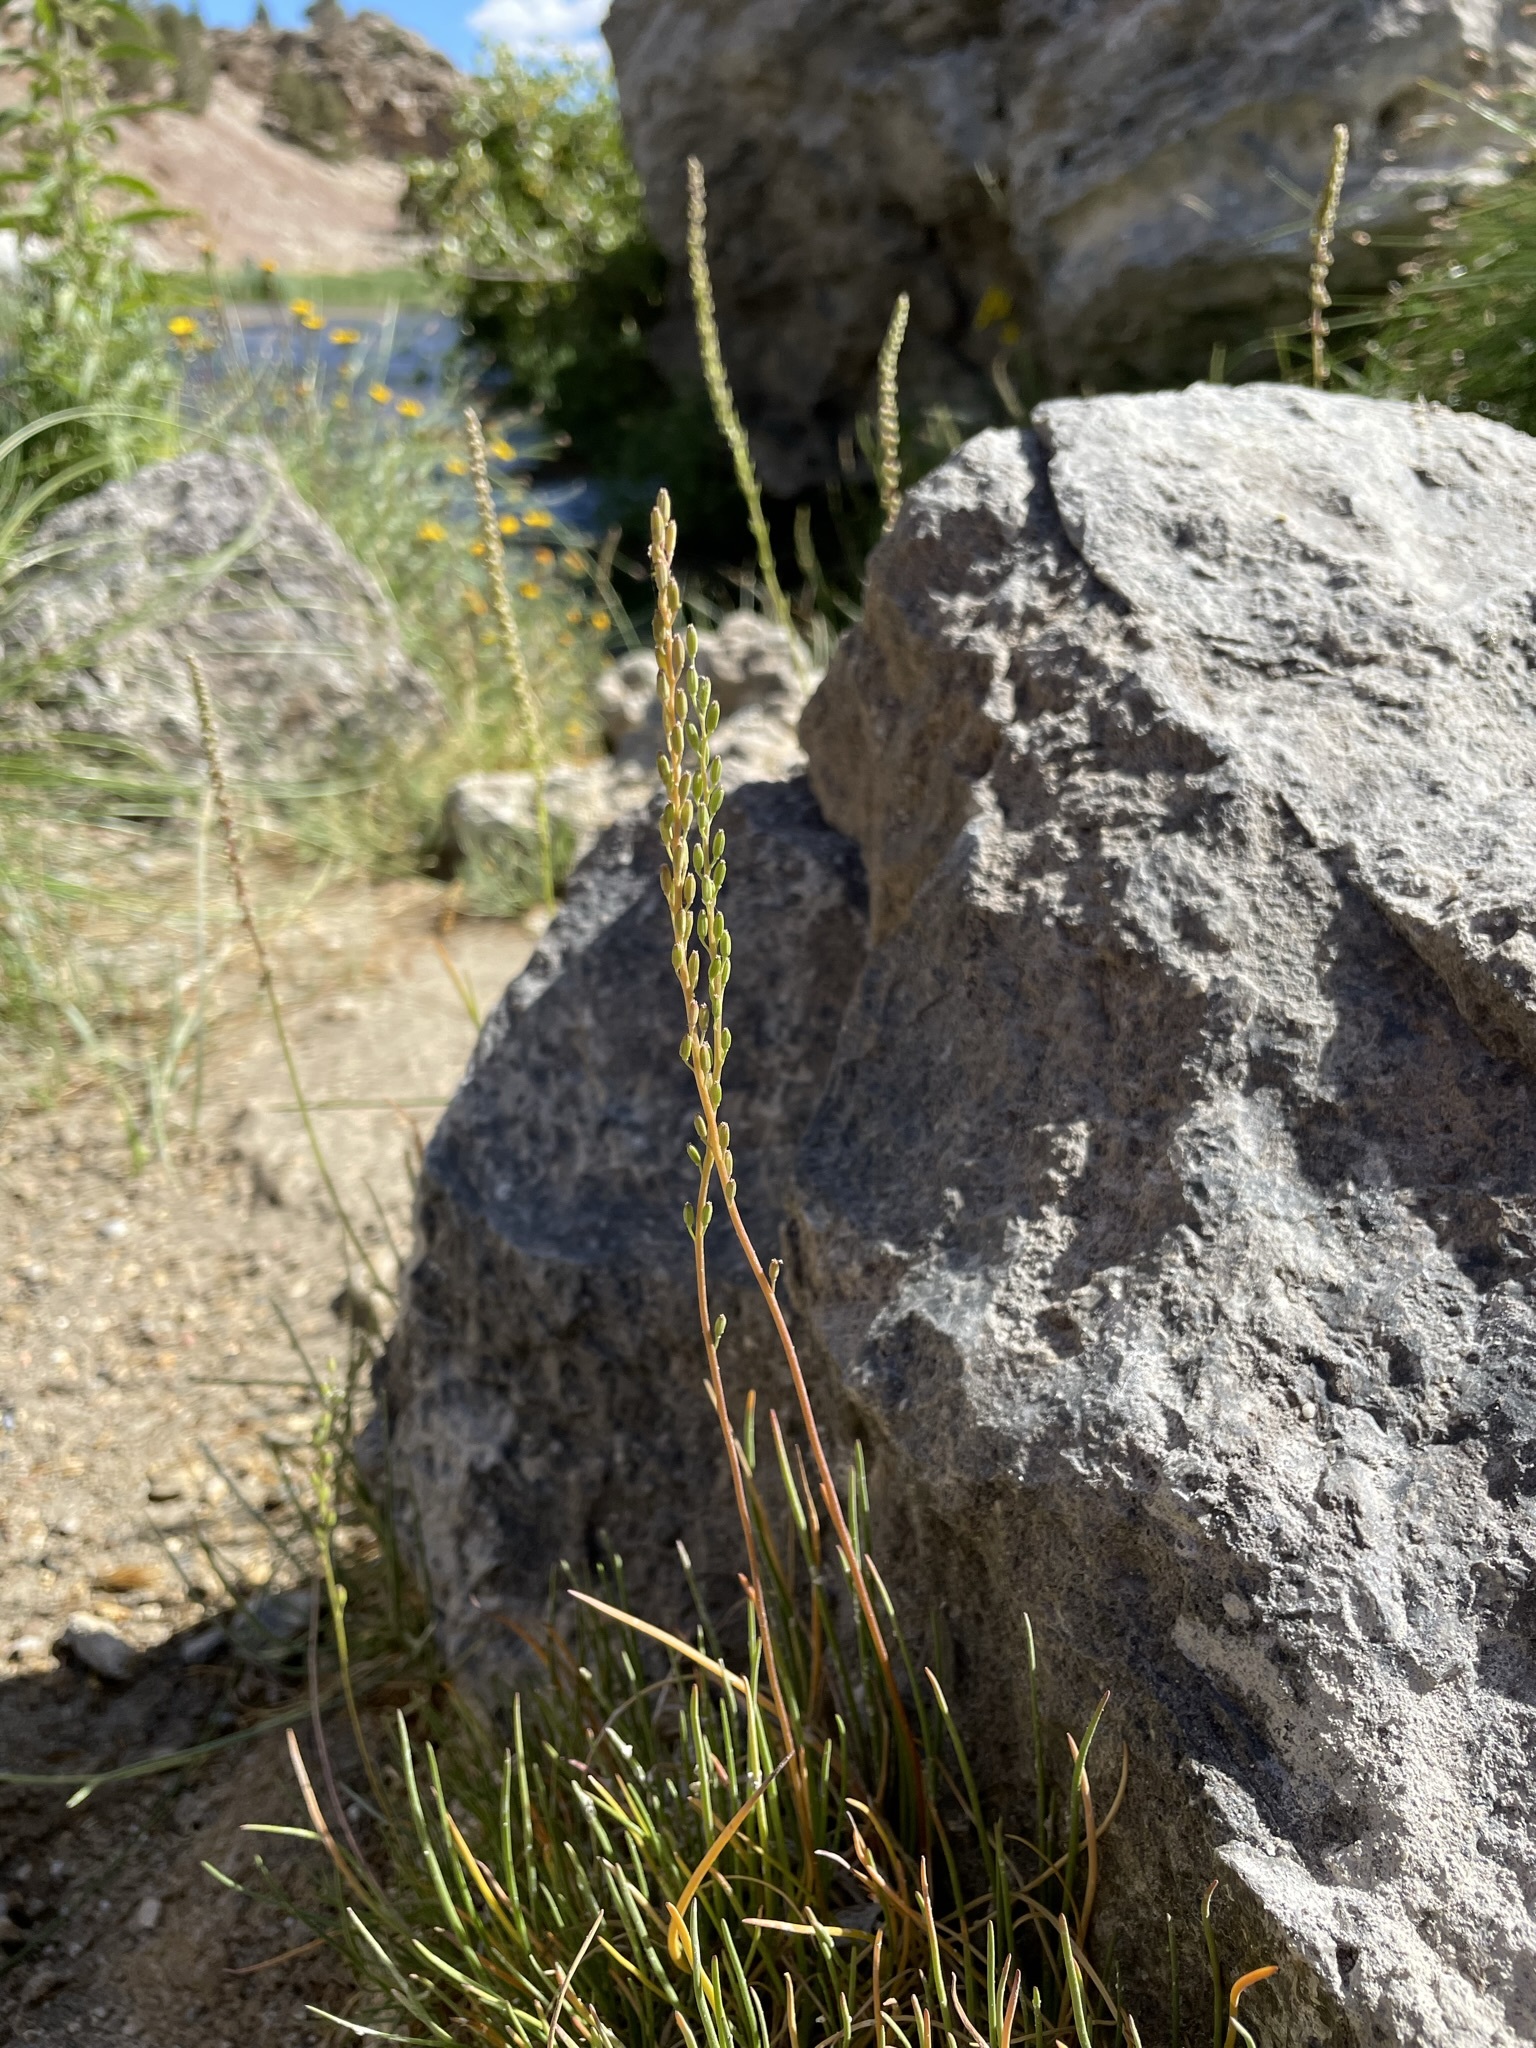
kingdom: Plantae
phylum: Tracheophyta
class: Liliopsida
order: Alismatales
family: Juncaginaceae
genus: Triglochin
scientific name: Triglochin maritima
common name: Sea arrowgrass
